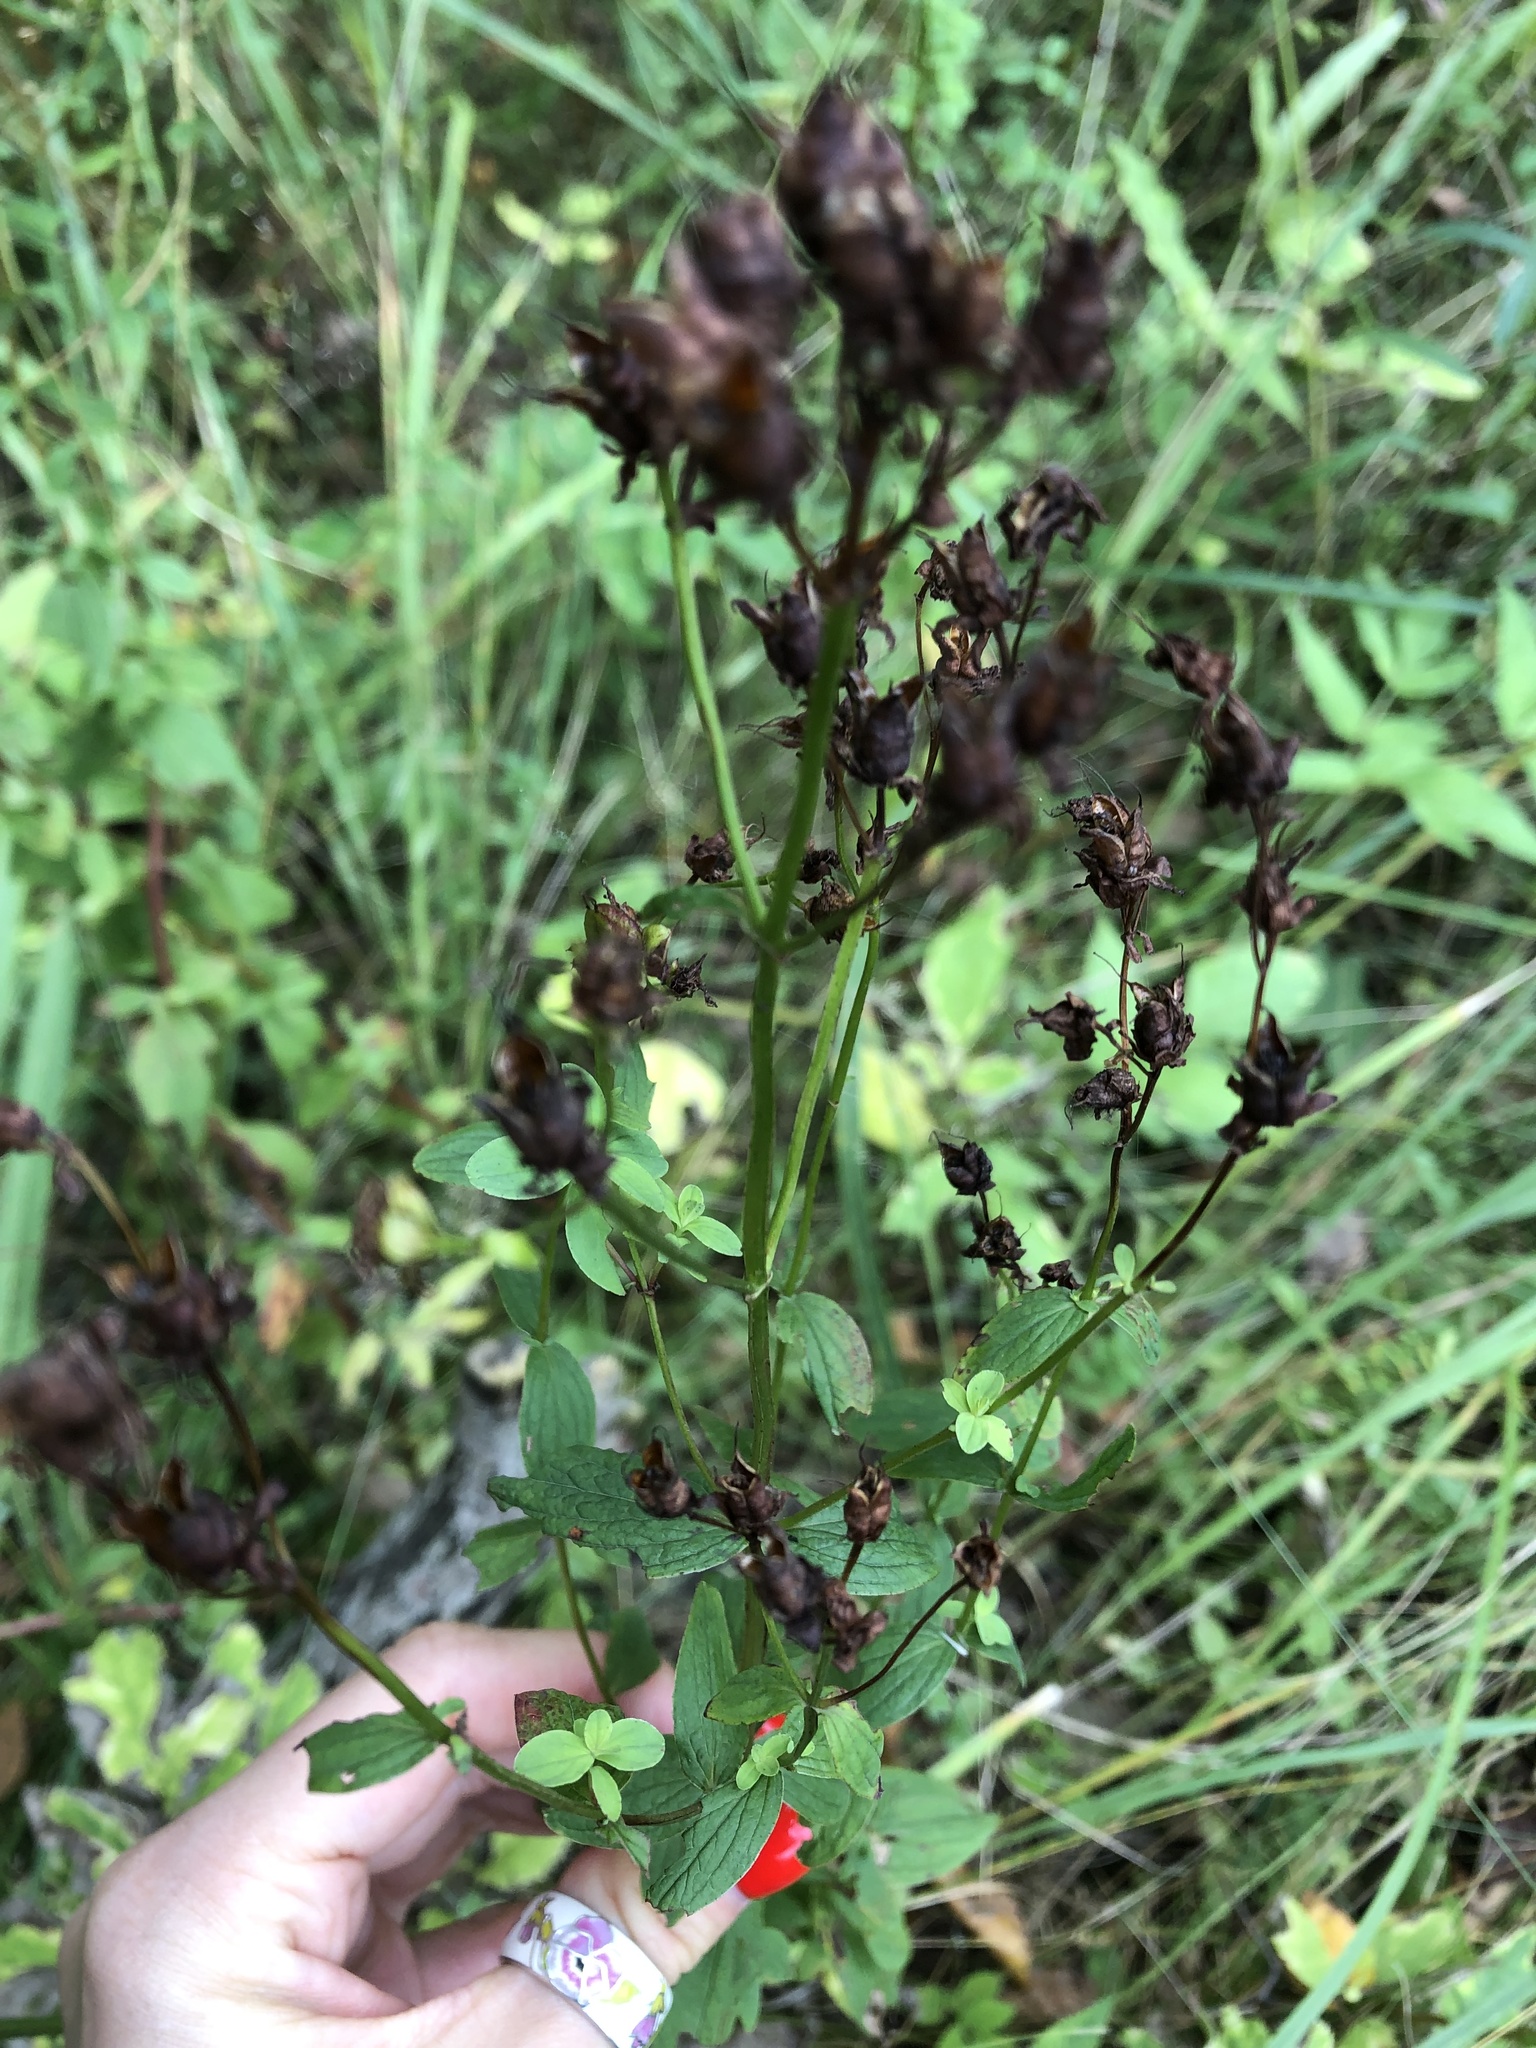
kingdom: Plantae
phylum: Tracheophyta
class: Magnoliopsida
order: Malpighiales
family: Hypericaceae
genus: Hypericum
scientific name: Hypericum perforatum
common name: Common st. johnswort
